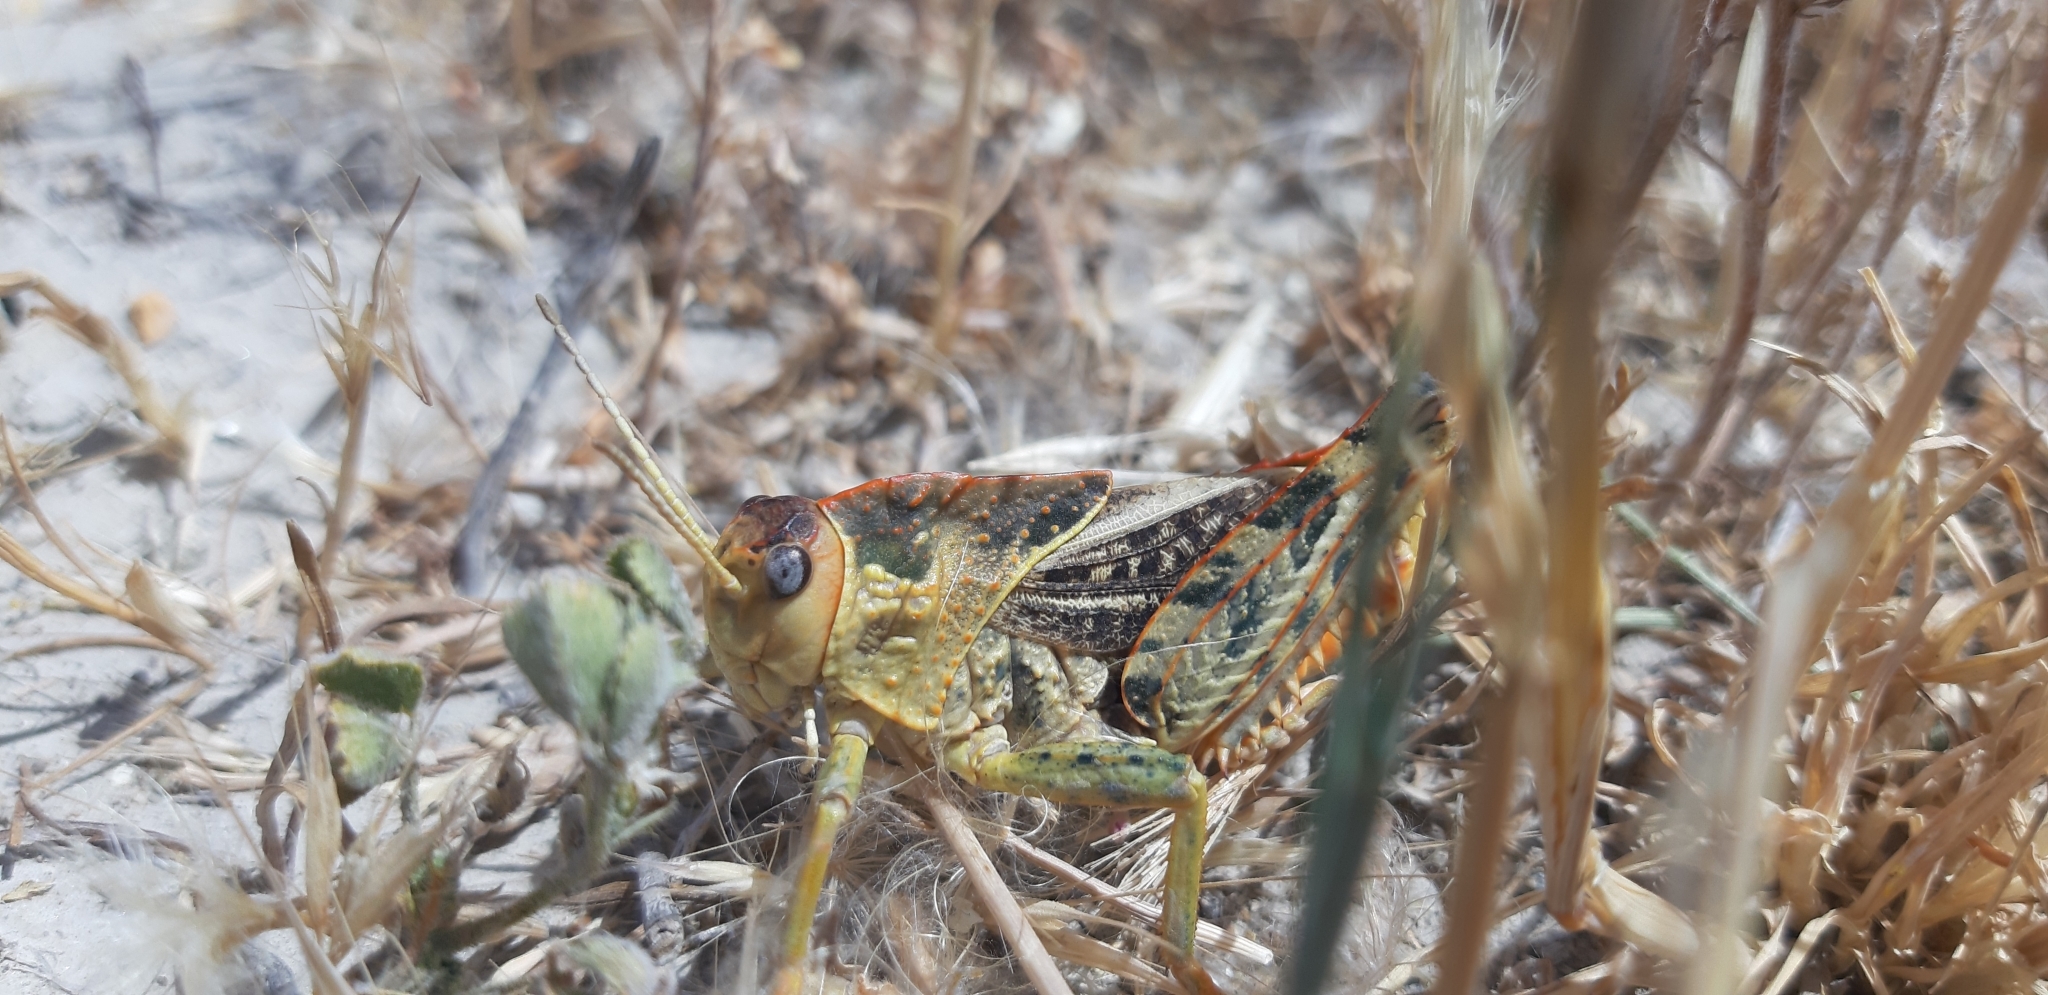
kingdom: Animalia
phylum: Arthropoda
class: Insecta
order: Orthoptera
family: Pamphagidae
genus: Prionotropis
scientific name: Prionotropis appula
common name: Apulian stone grasshopper
